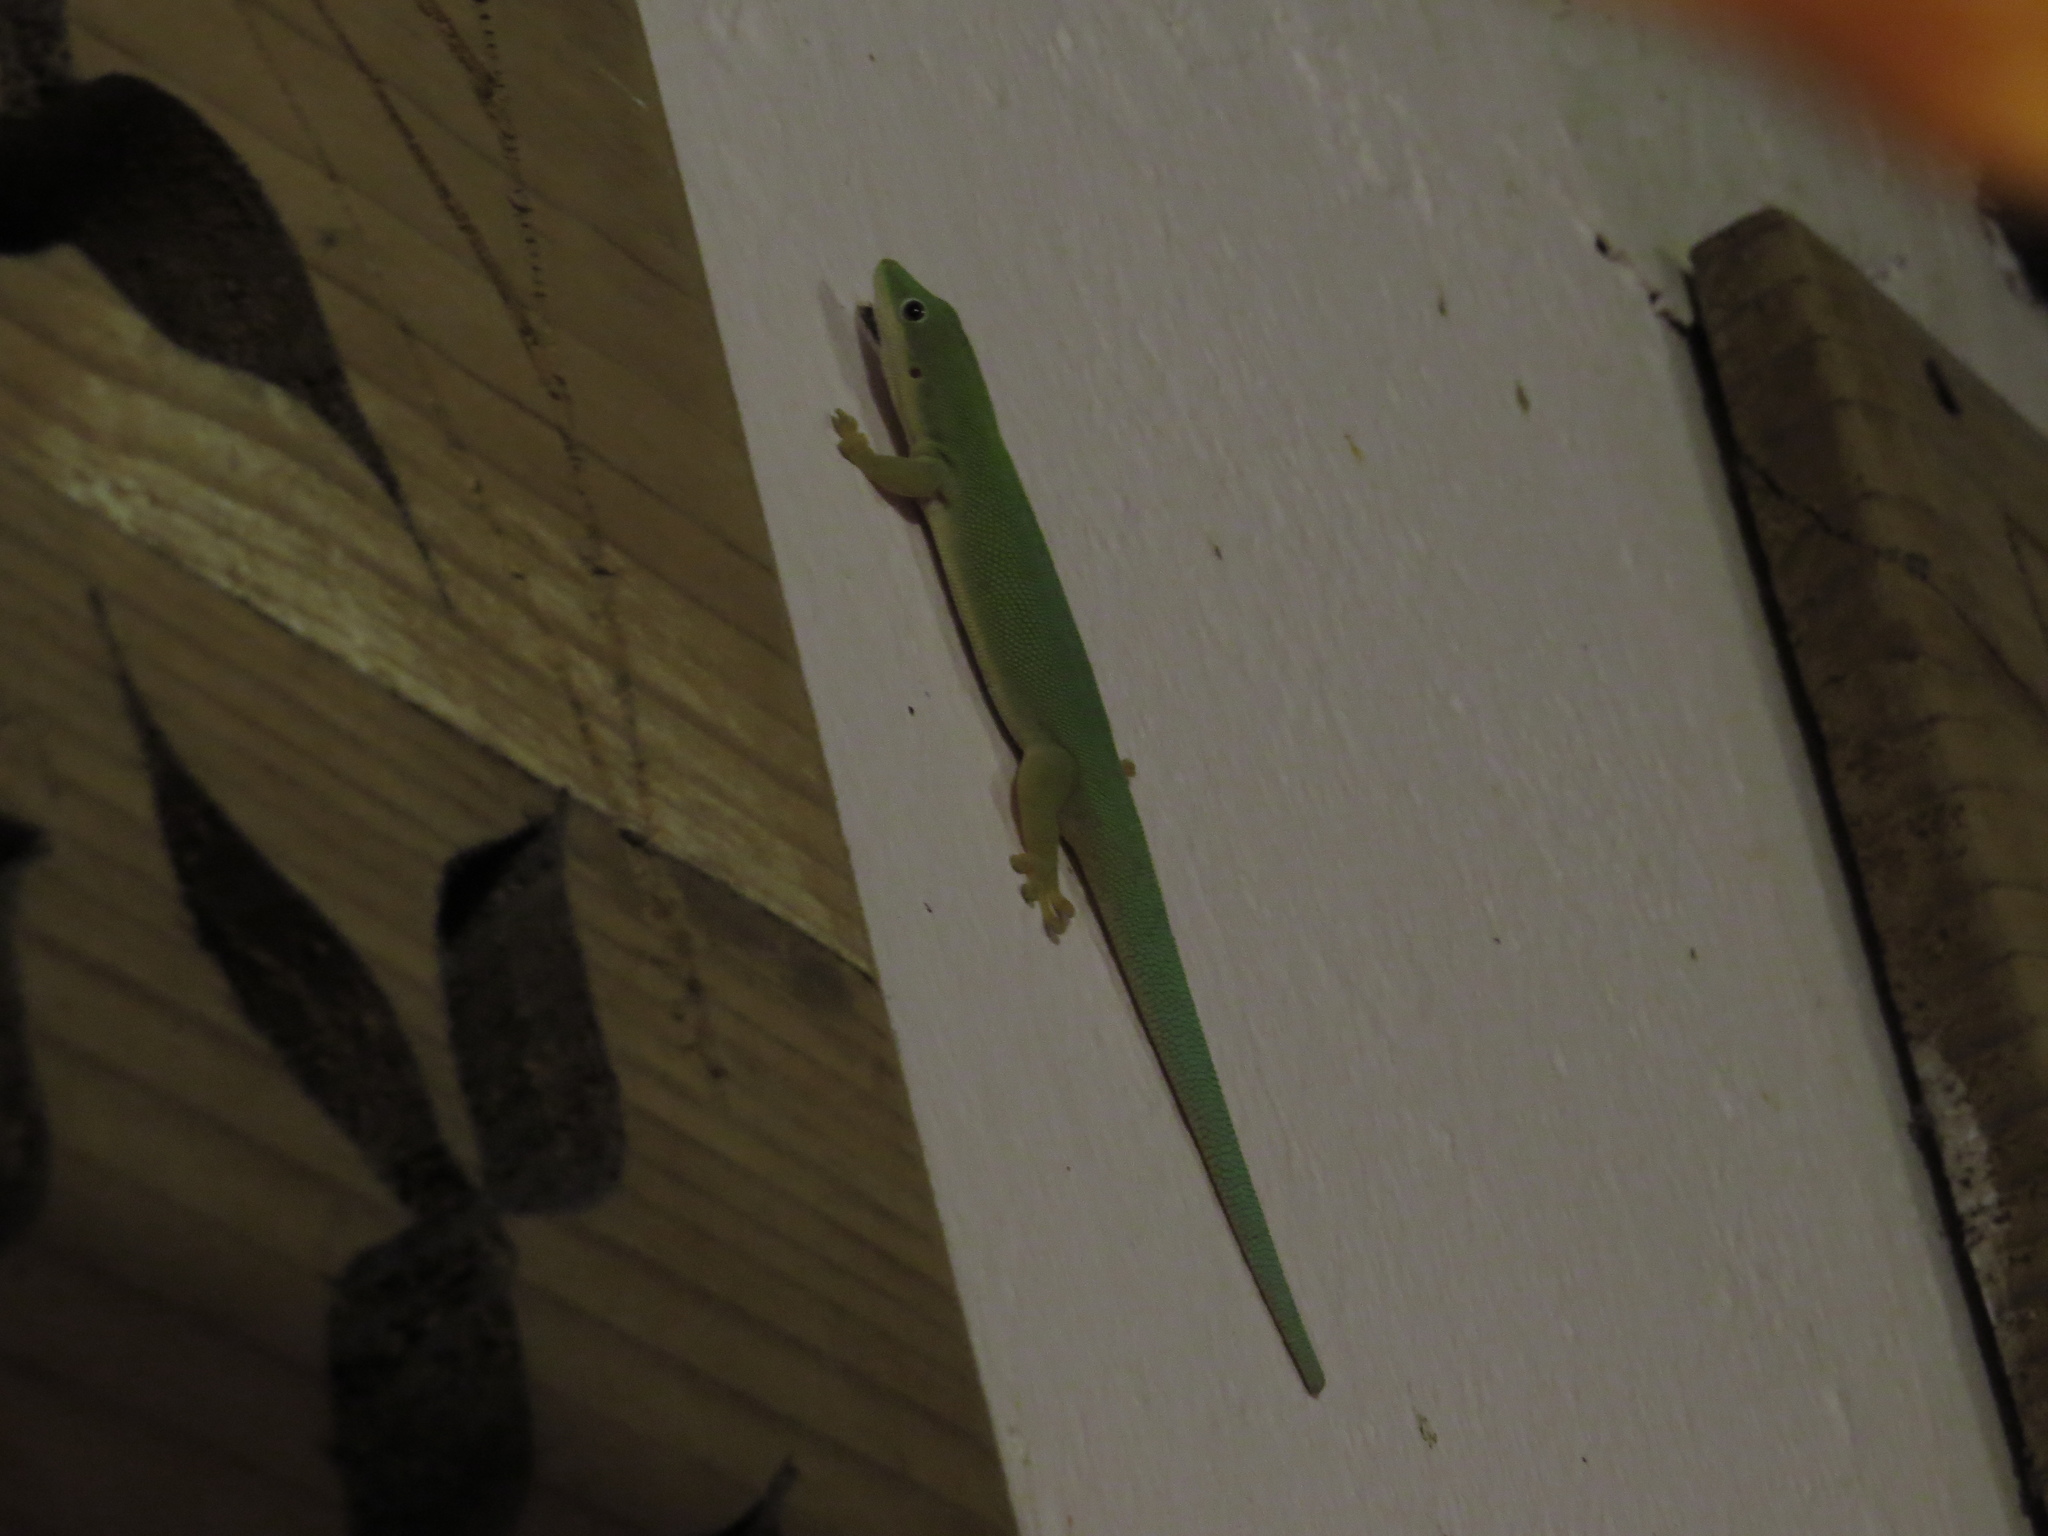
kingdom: Animalia
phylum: Chordata
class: Squamata
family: Gekkonidae
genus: Phelsuma
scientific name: Phelsuma dubia
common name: Zanzibar day gecko
